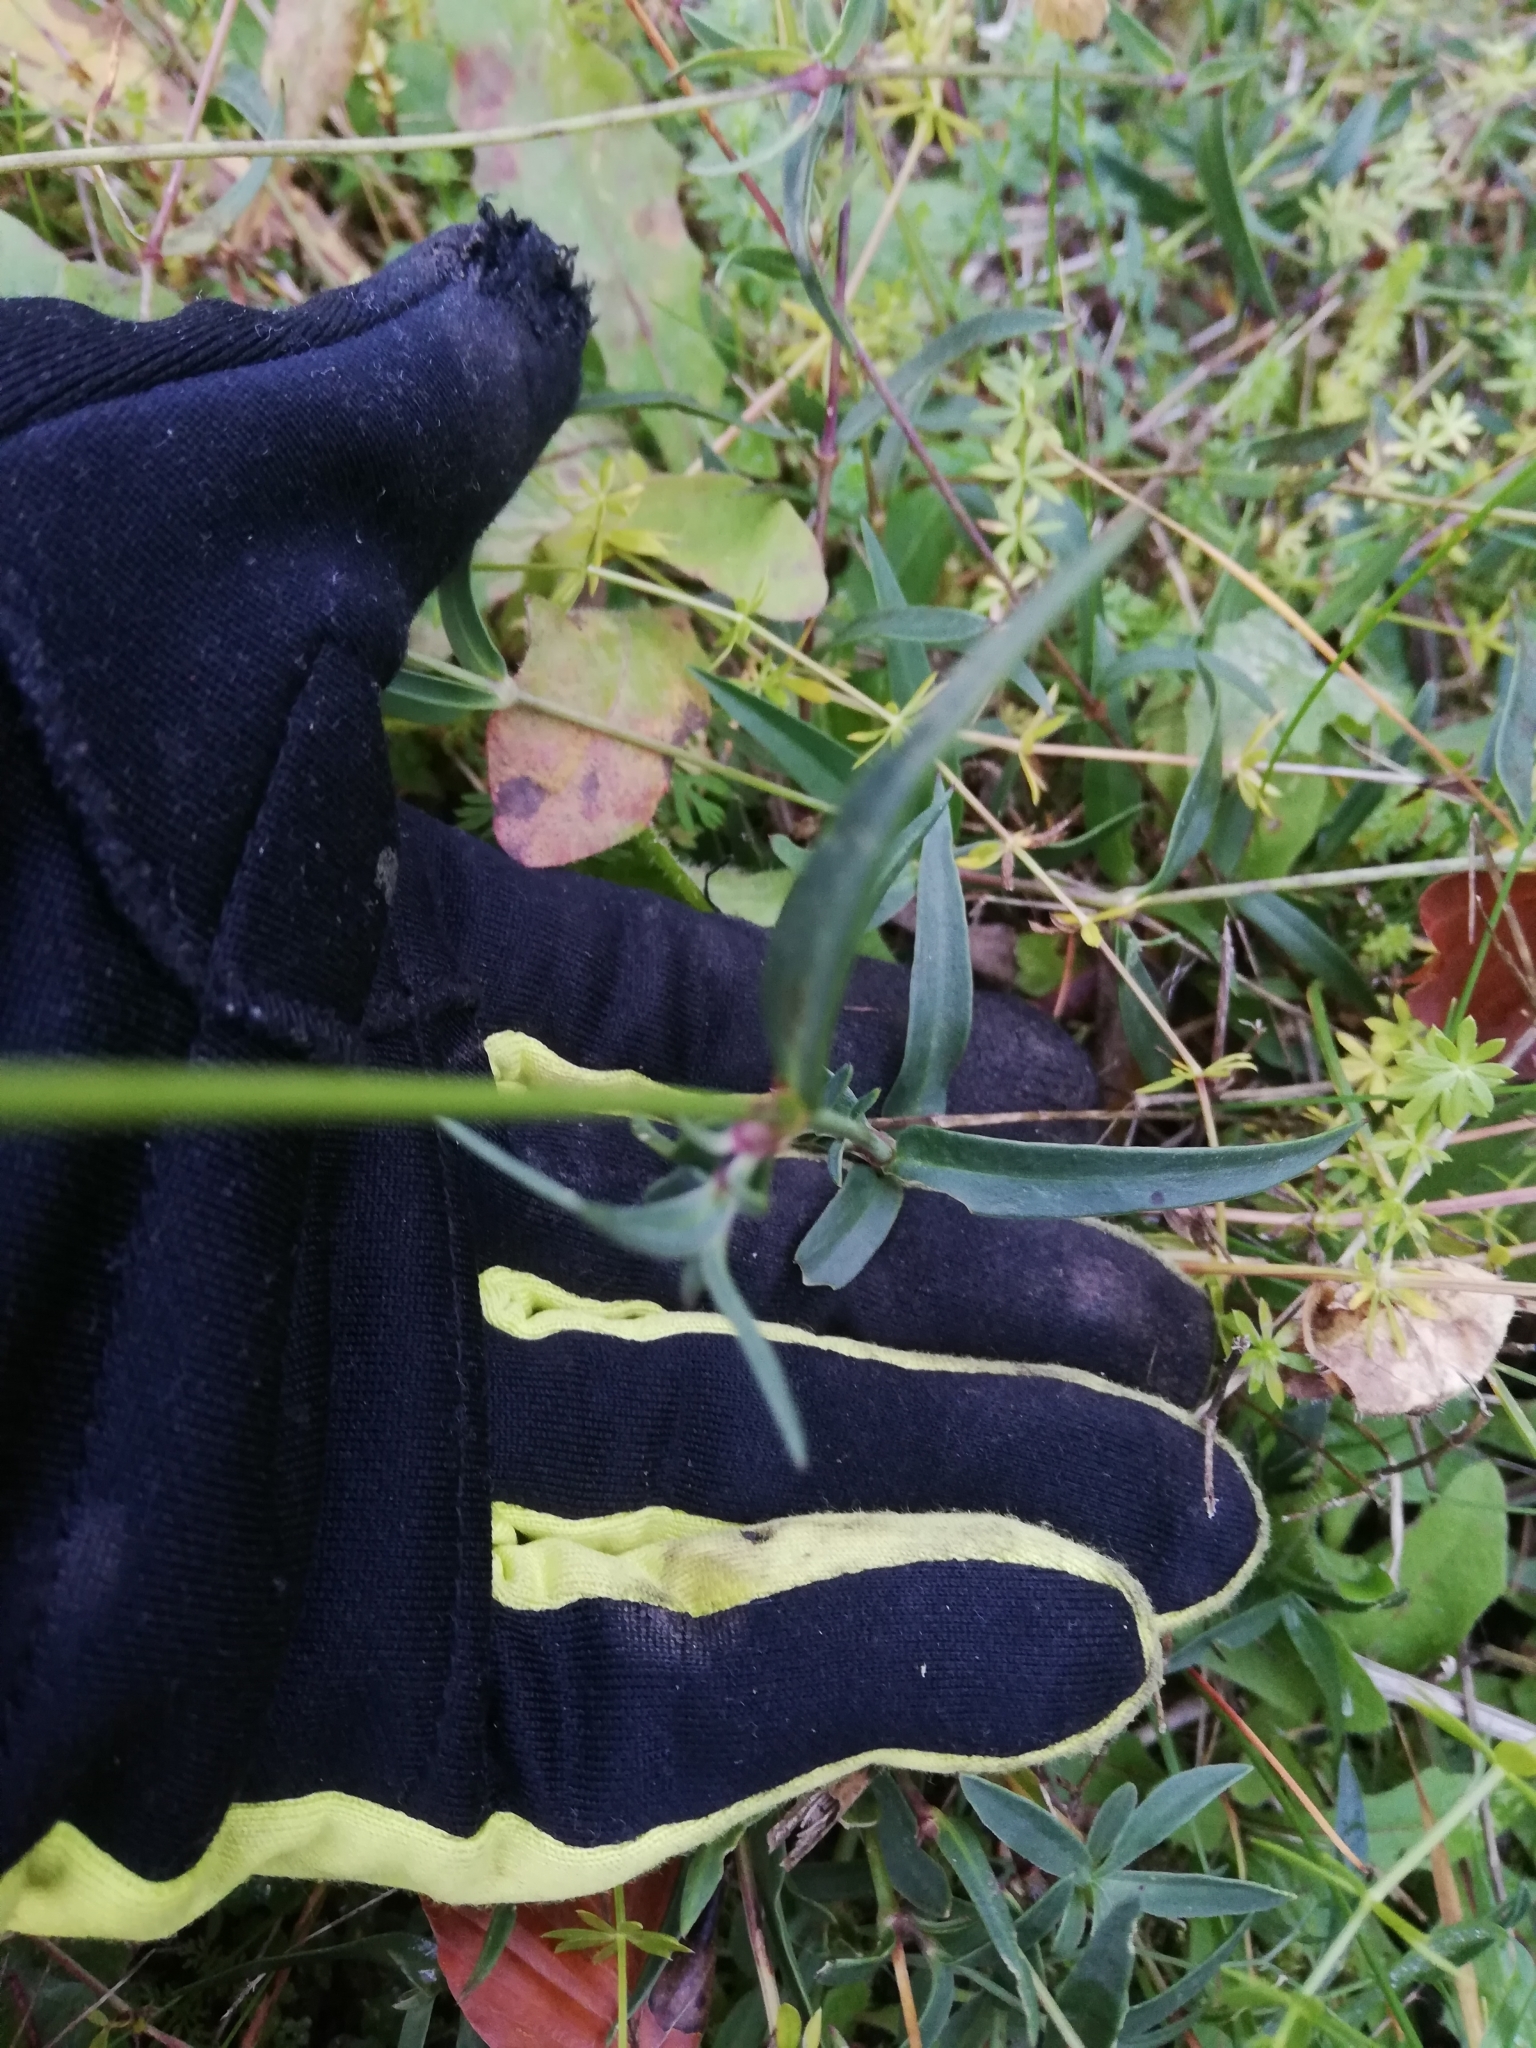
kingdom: Plantae
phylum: Tracheophyta
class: Magnoliopsida
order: Caryophyllales
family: Caryophyllaceae
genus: Silene
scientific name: Silene vulgaris
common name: Bladder campion
